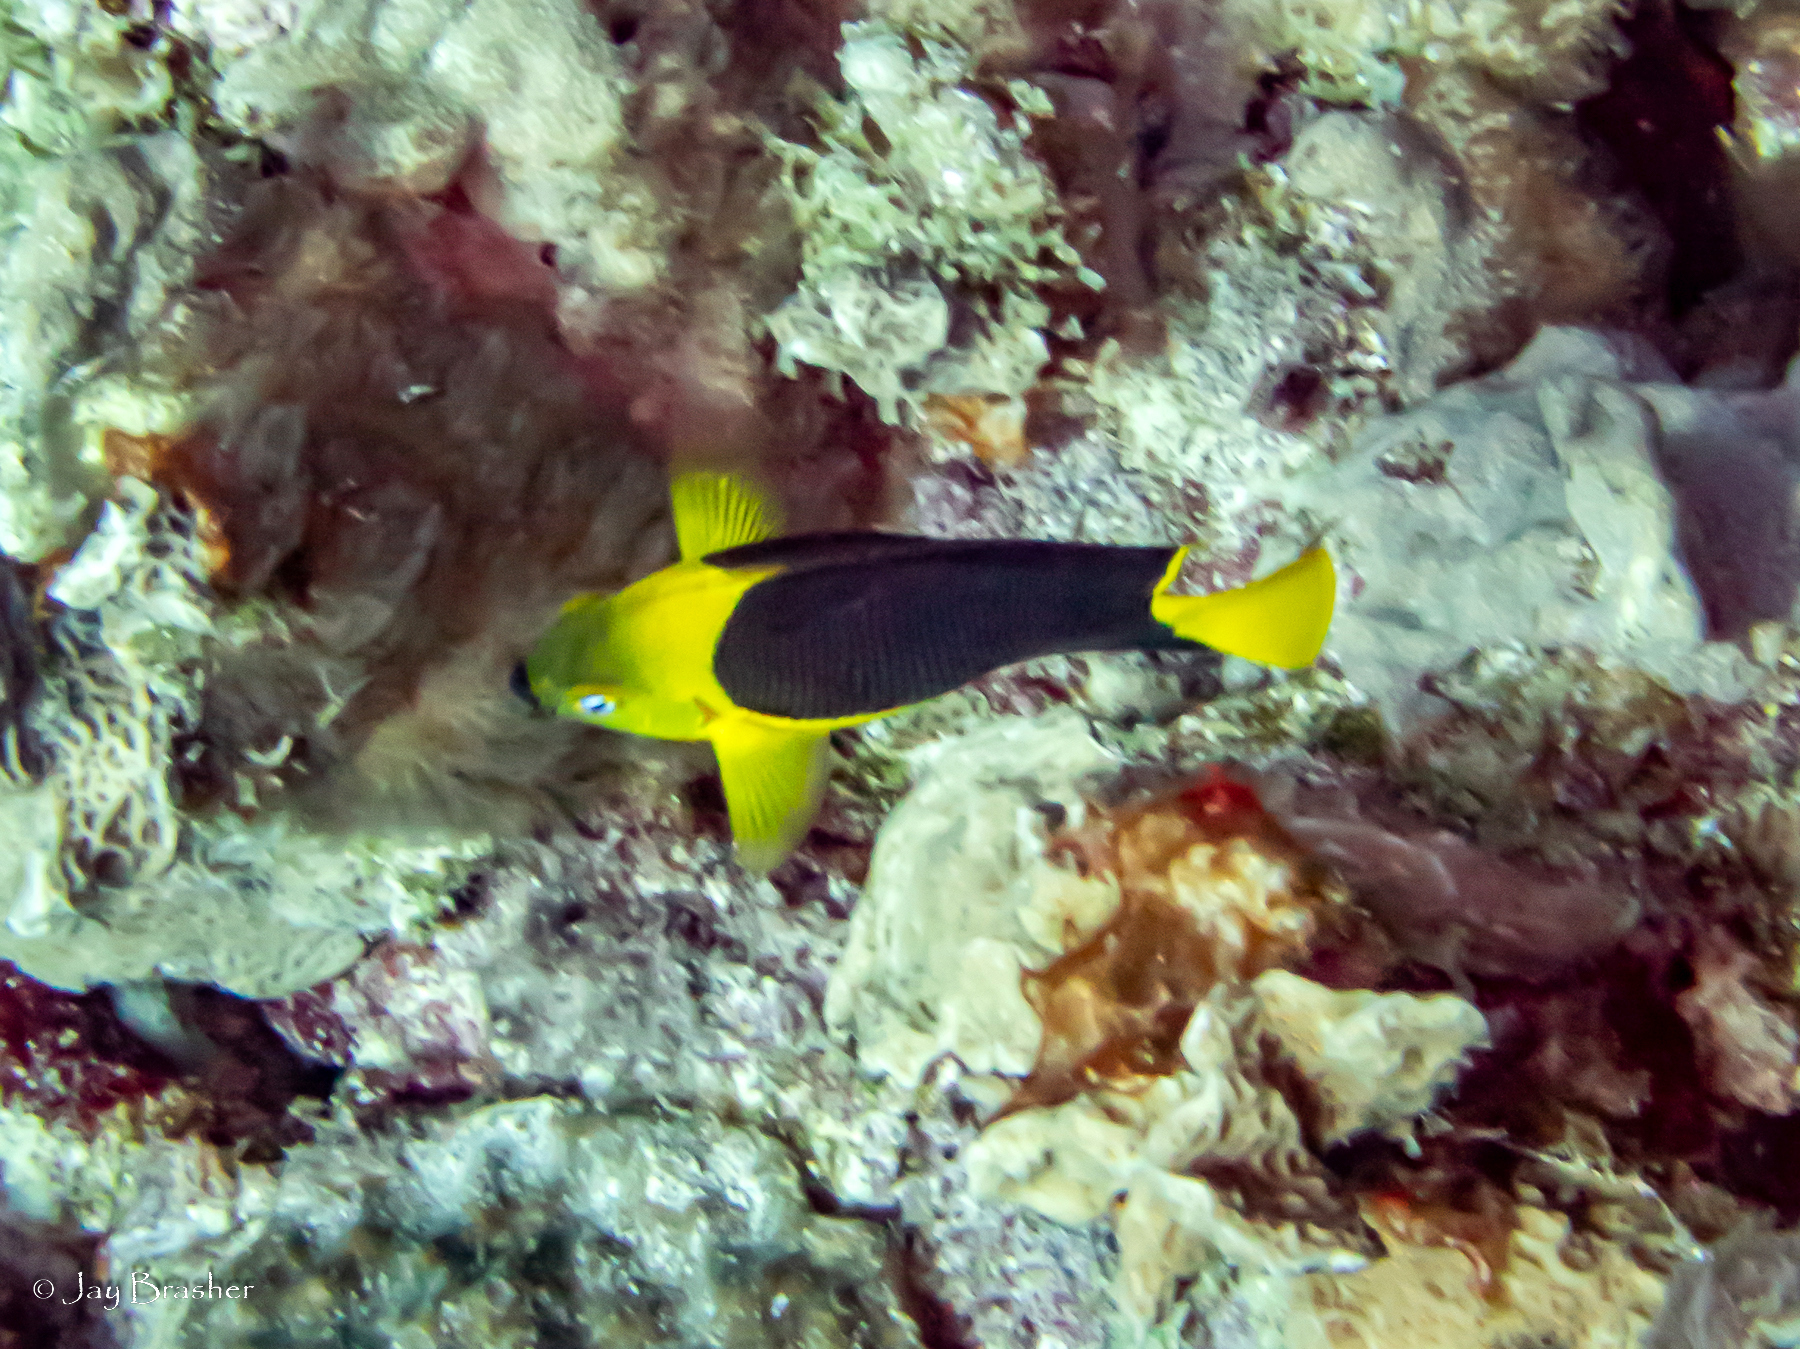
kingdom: Animalia
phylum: Chordata
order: Perciformes
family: Pomacanthidae
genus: Holacanthus
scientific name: Holacanthus tricolor
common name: Rock beauty
